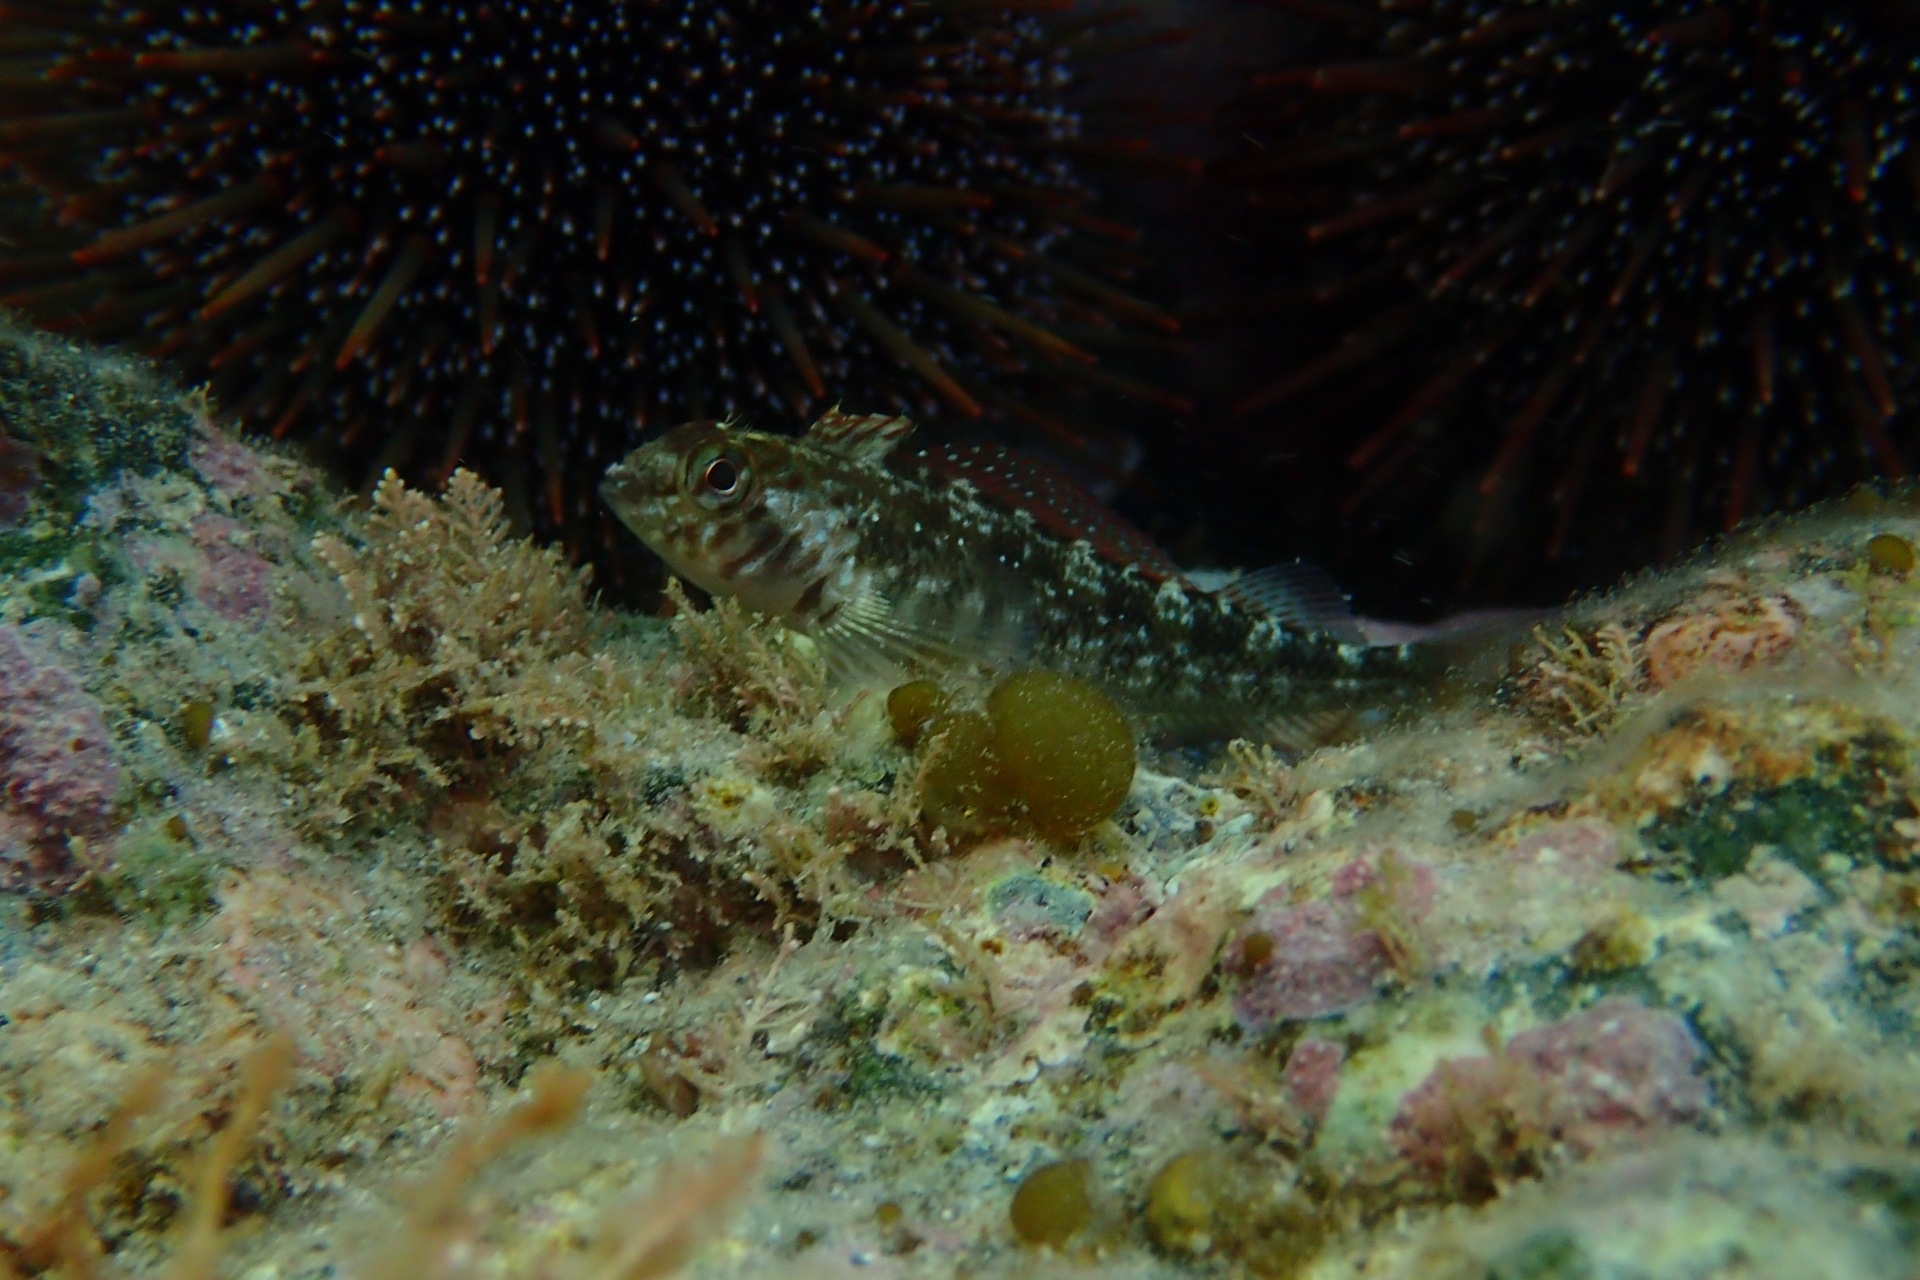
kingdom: Animalia
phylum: Chordata
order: Perciformes
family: Tripterygiidae
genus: Forsterygion
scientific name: Forsterygion lapillum
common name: Common triplefin
